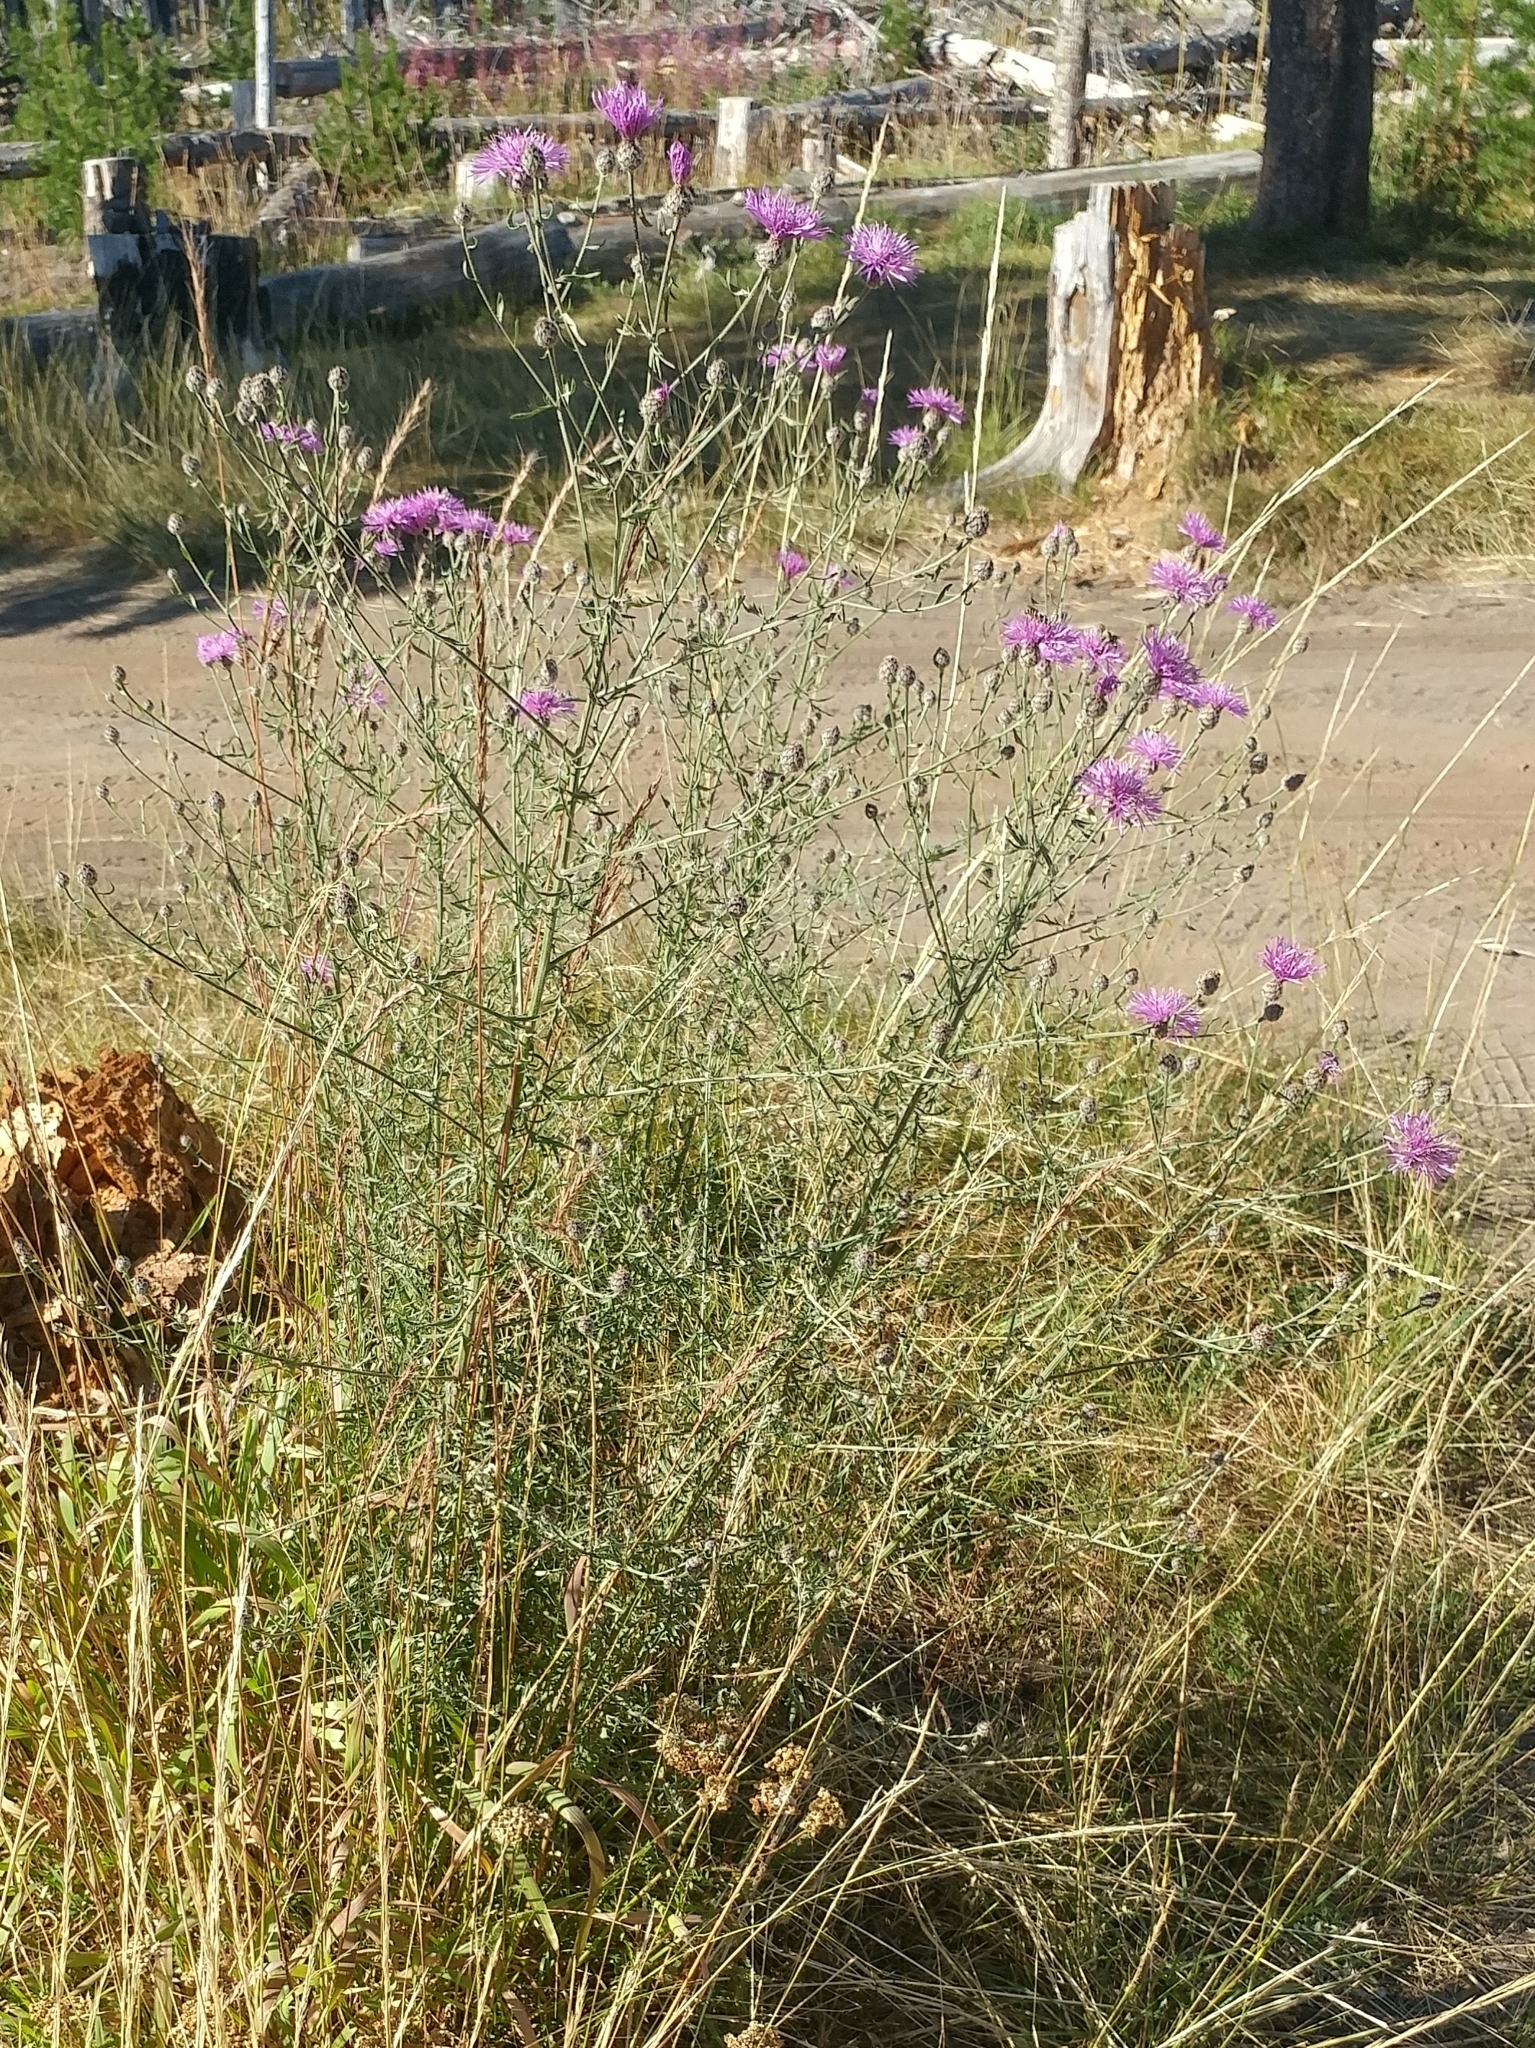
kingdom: Plantae
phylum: Tracheophyta
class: Magnoliopsida
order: Asterales
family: Asteraceae
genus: Centaurea
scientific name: Centaurea stoebe
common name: Spotted knapweed
